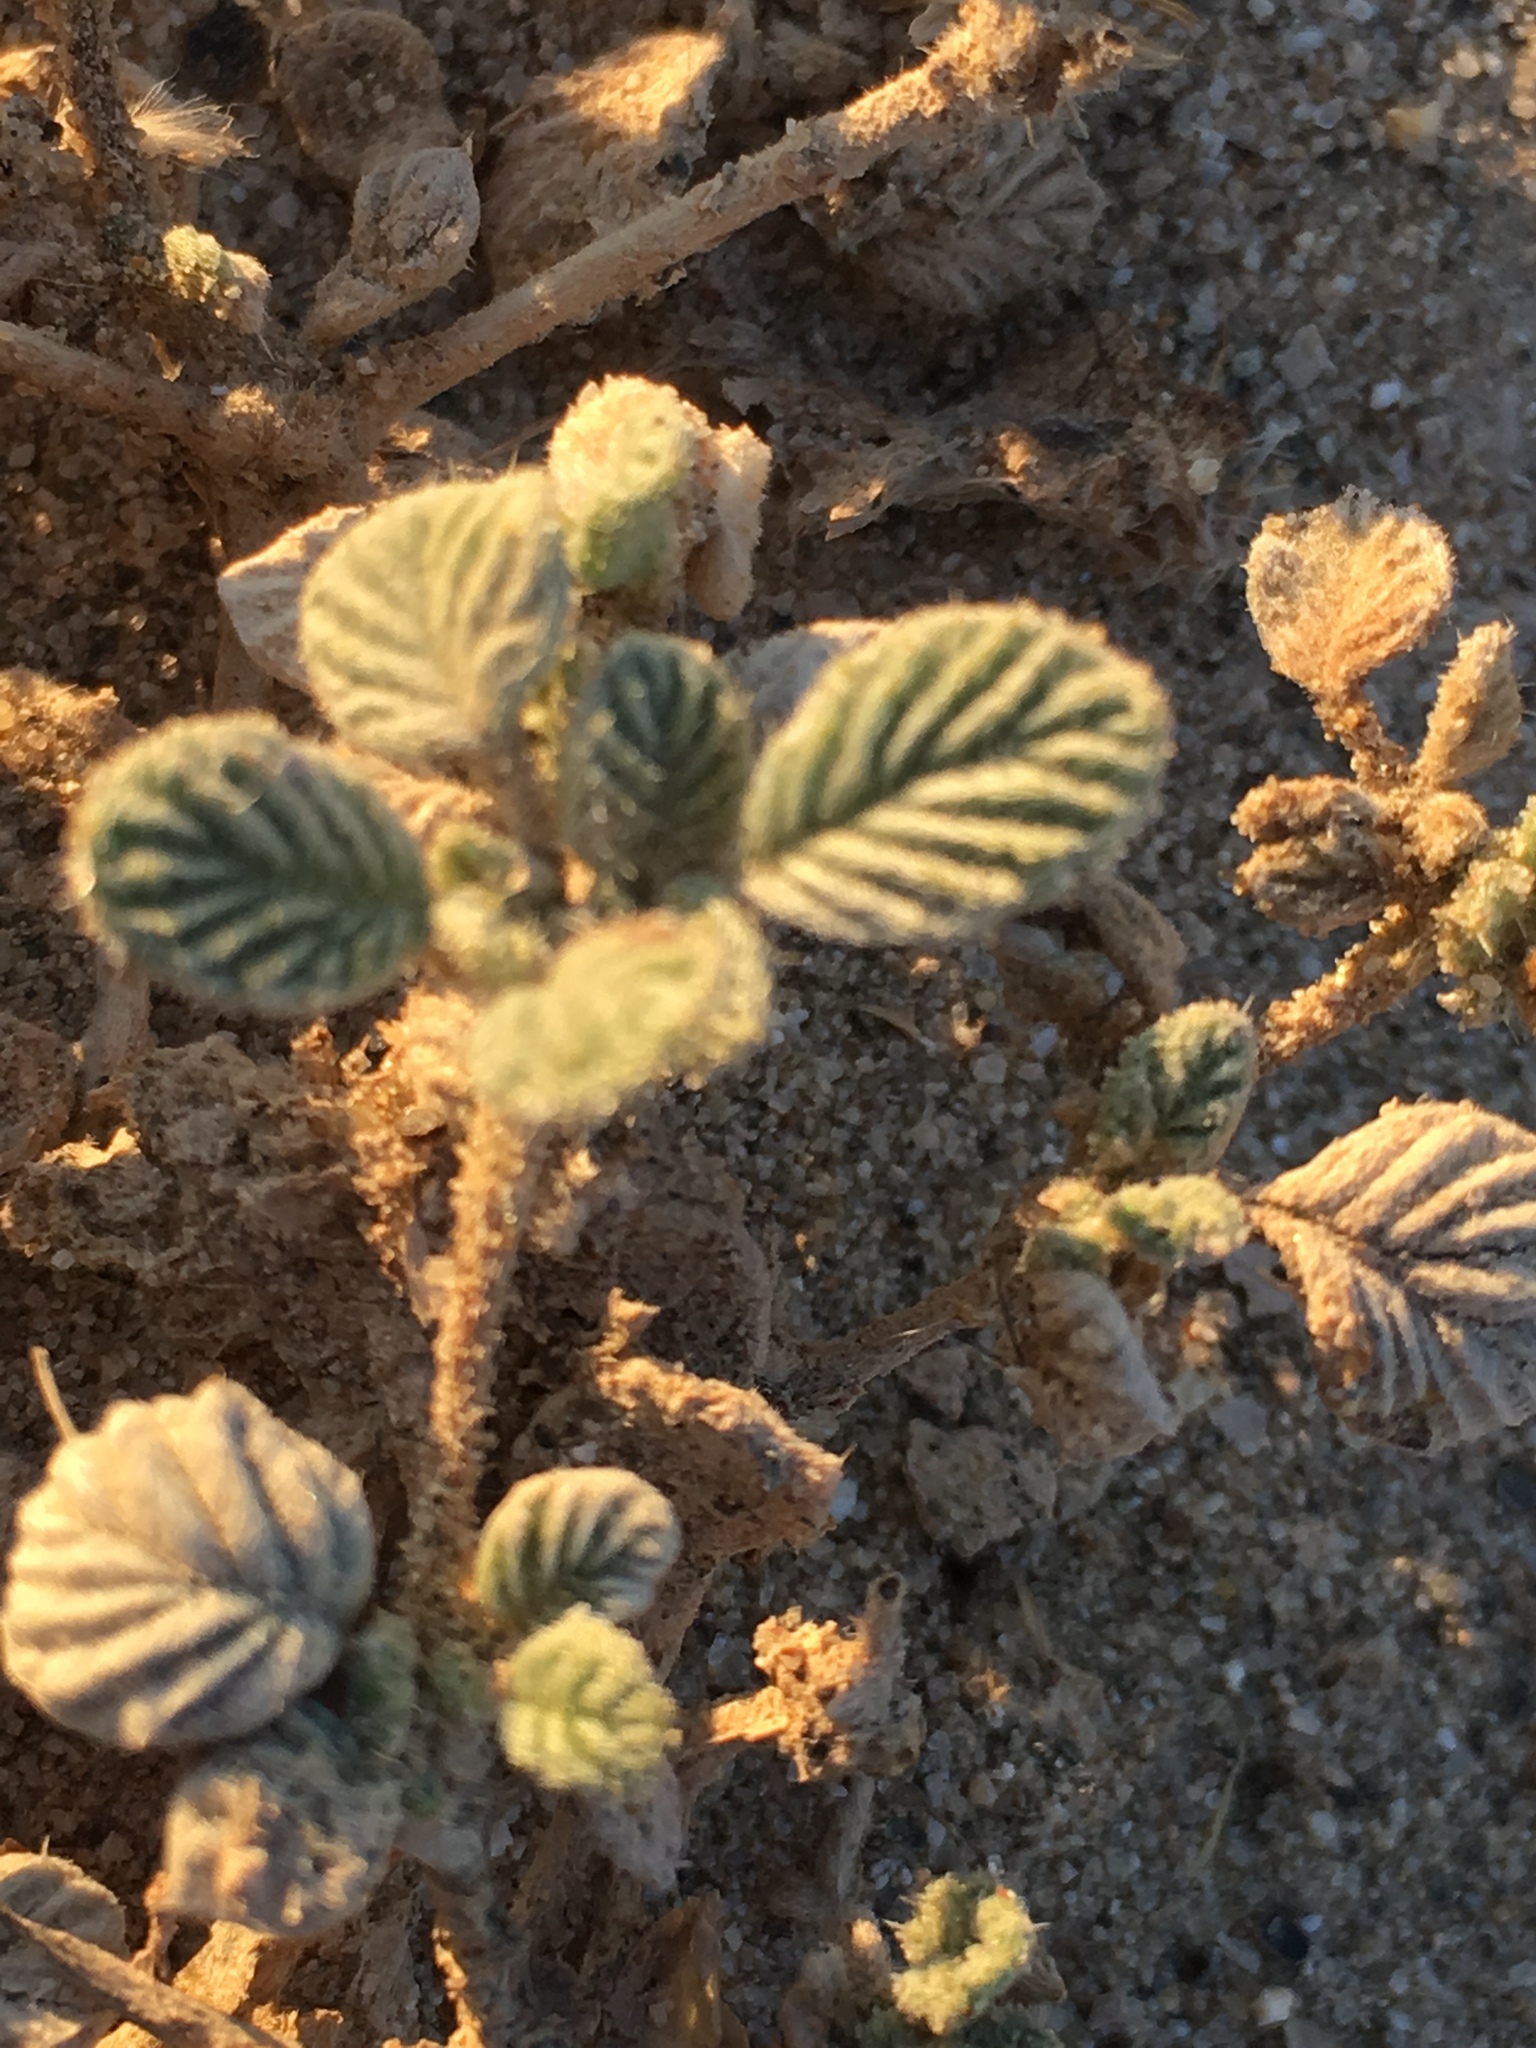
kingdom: Plantae
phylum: Tracheophyta
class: Magnoliopsida
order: Boraginales
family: Ehretiaceae
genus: Tiquilia
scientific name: Tiquilia plicata
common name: Fan-leaf tiquilia
